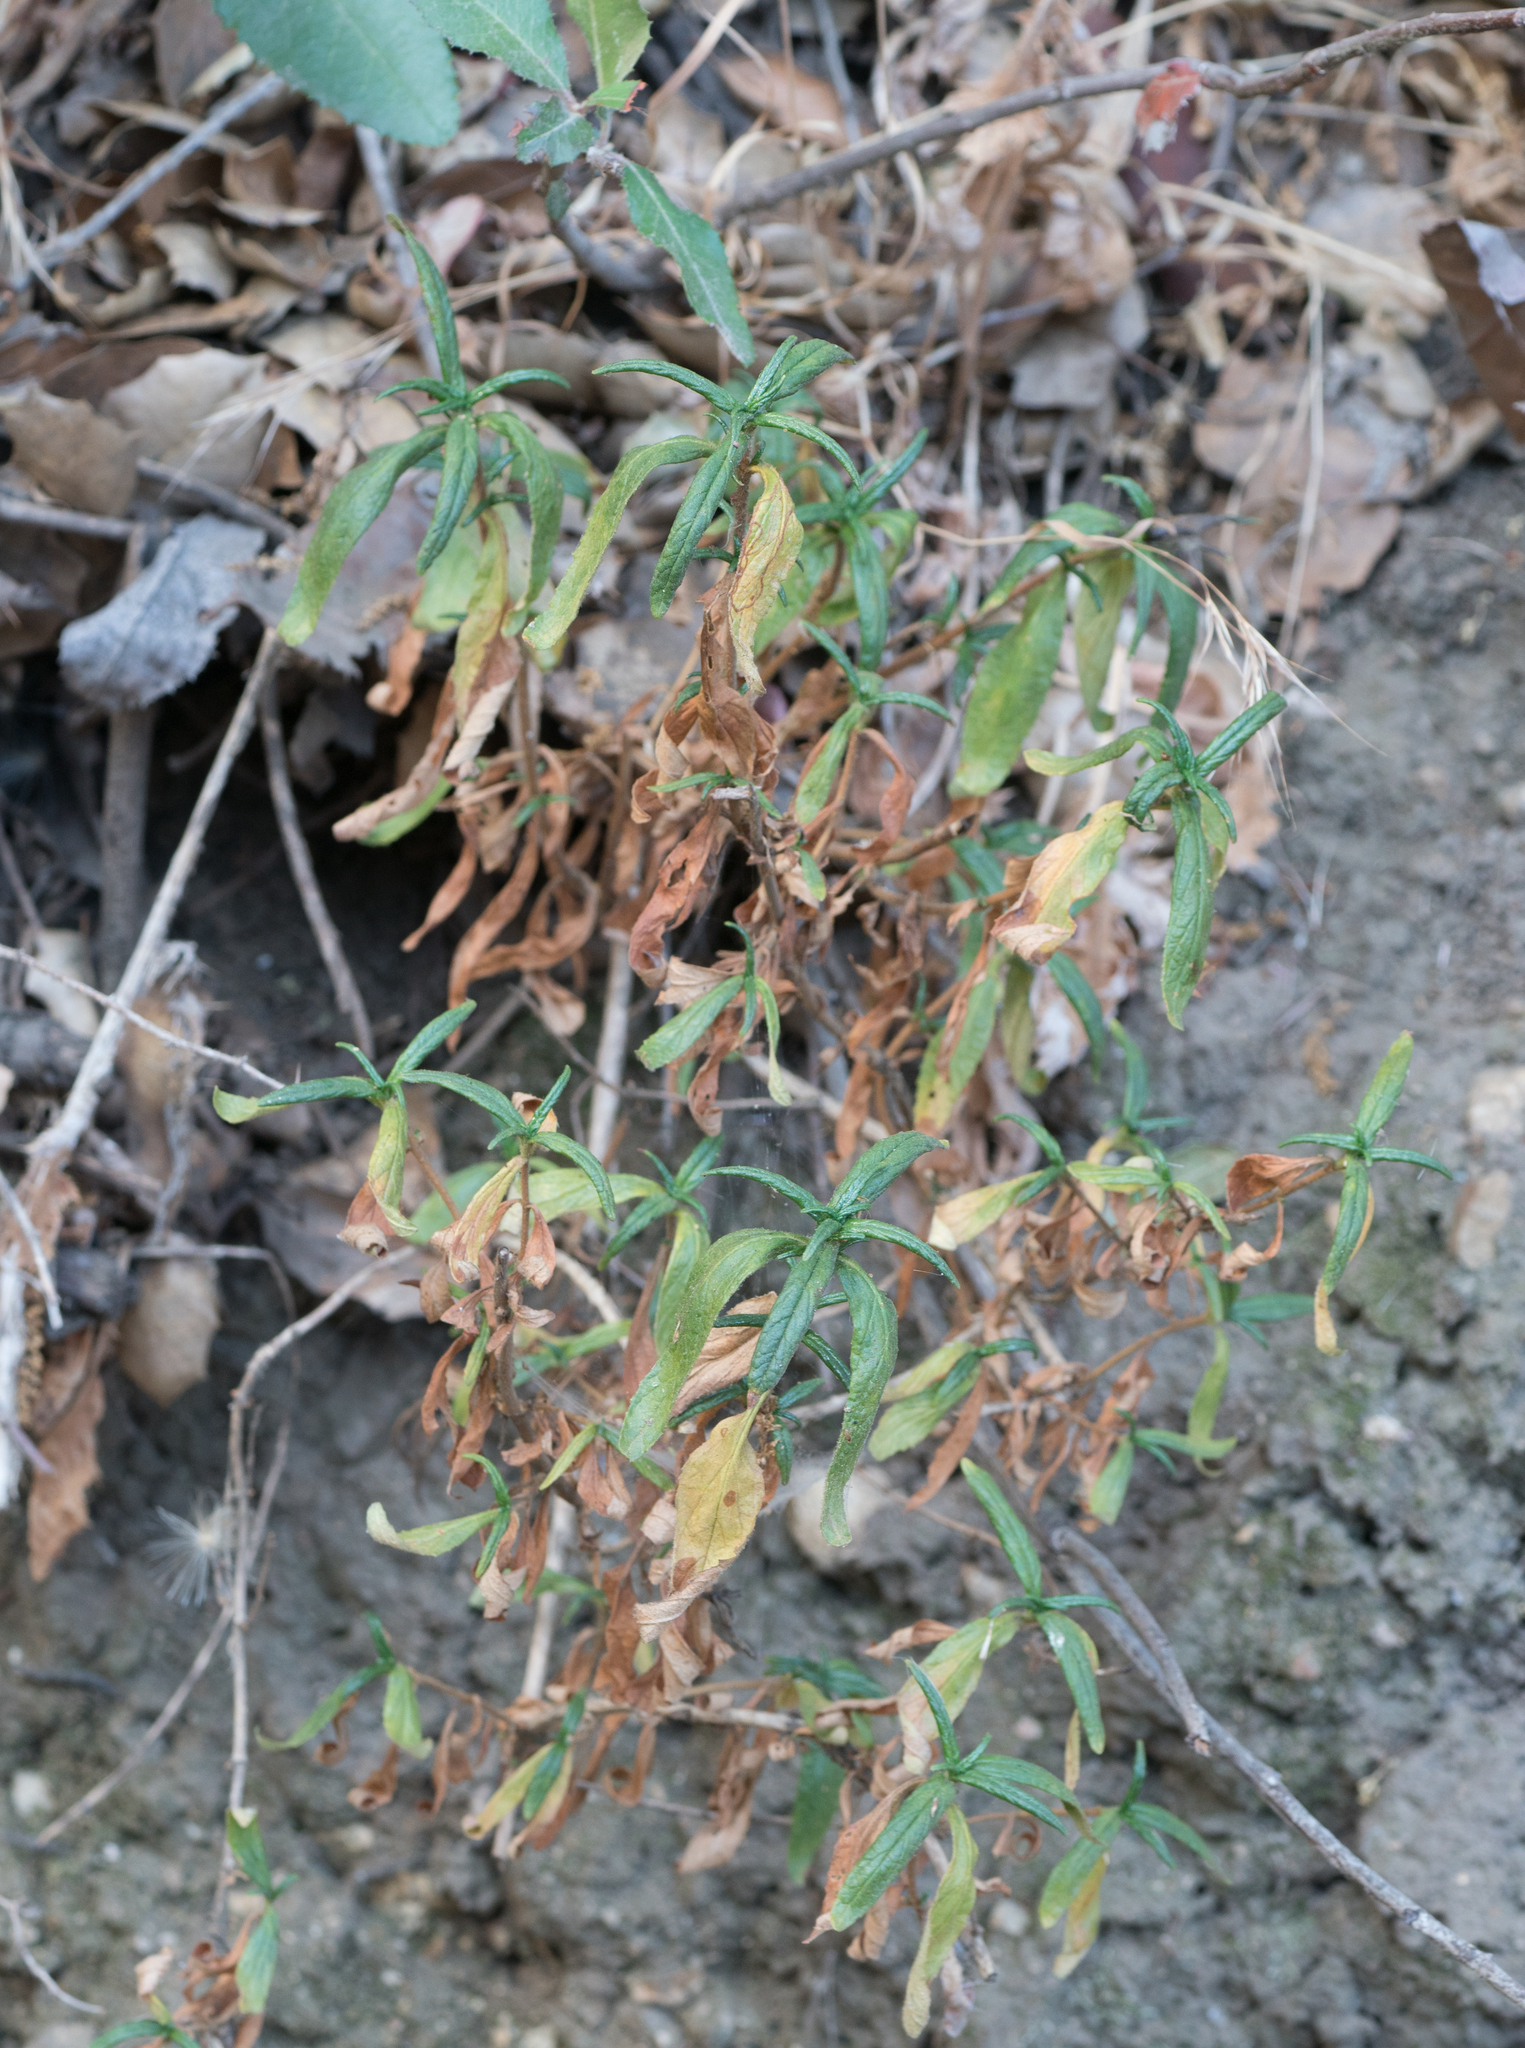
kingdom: Plantae
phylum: Tracheophyta
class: Magnoliopsida
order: Lamiales
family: Phrymaceae
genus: Diplacus
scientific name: Diplacus longiflorus
